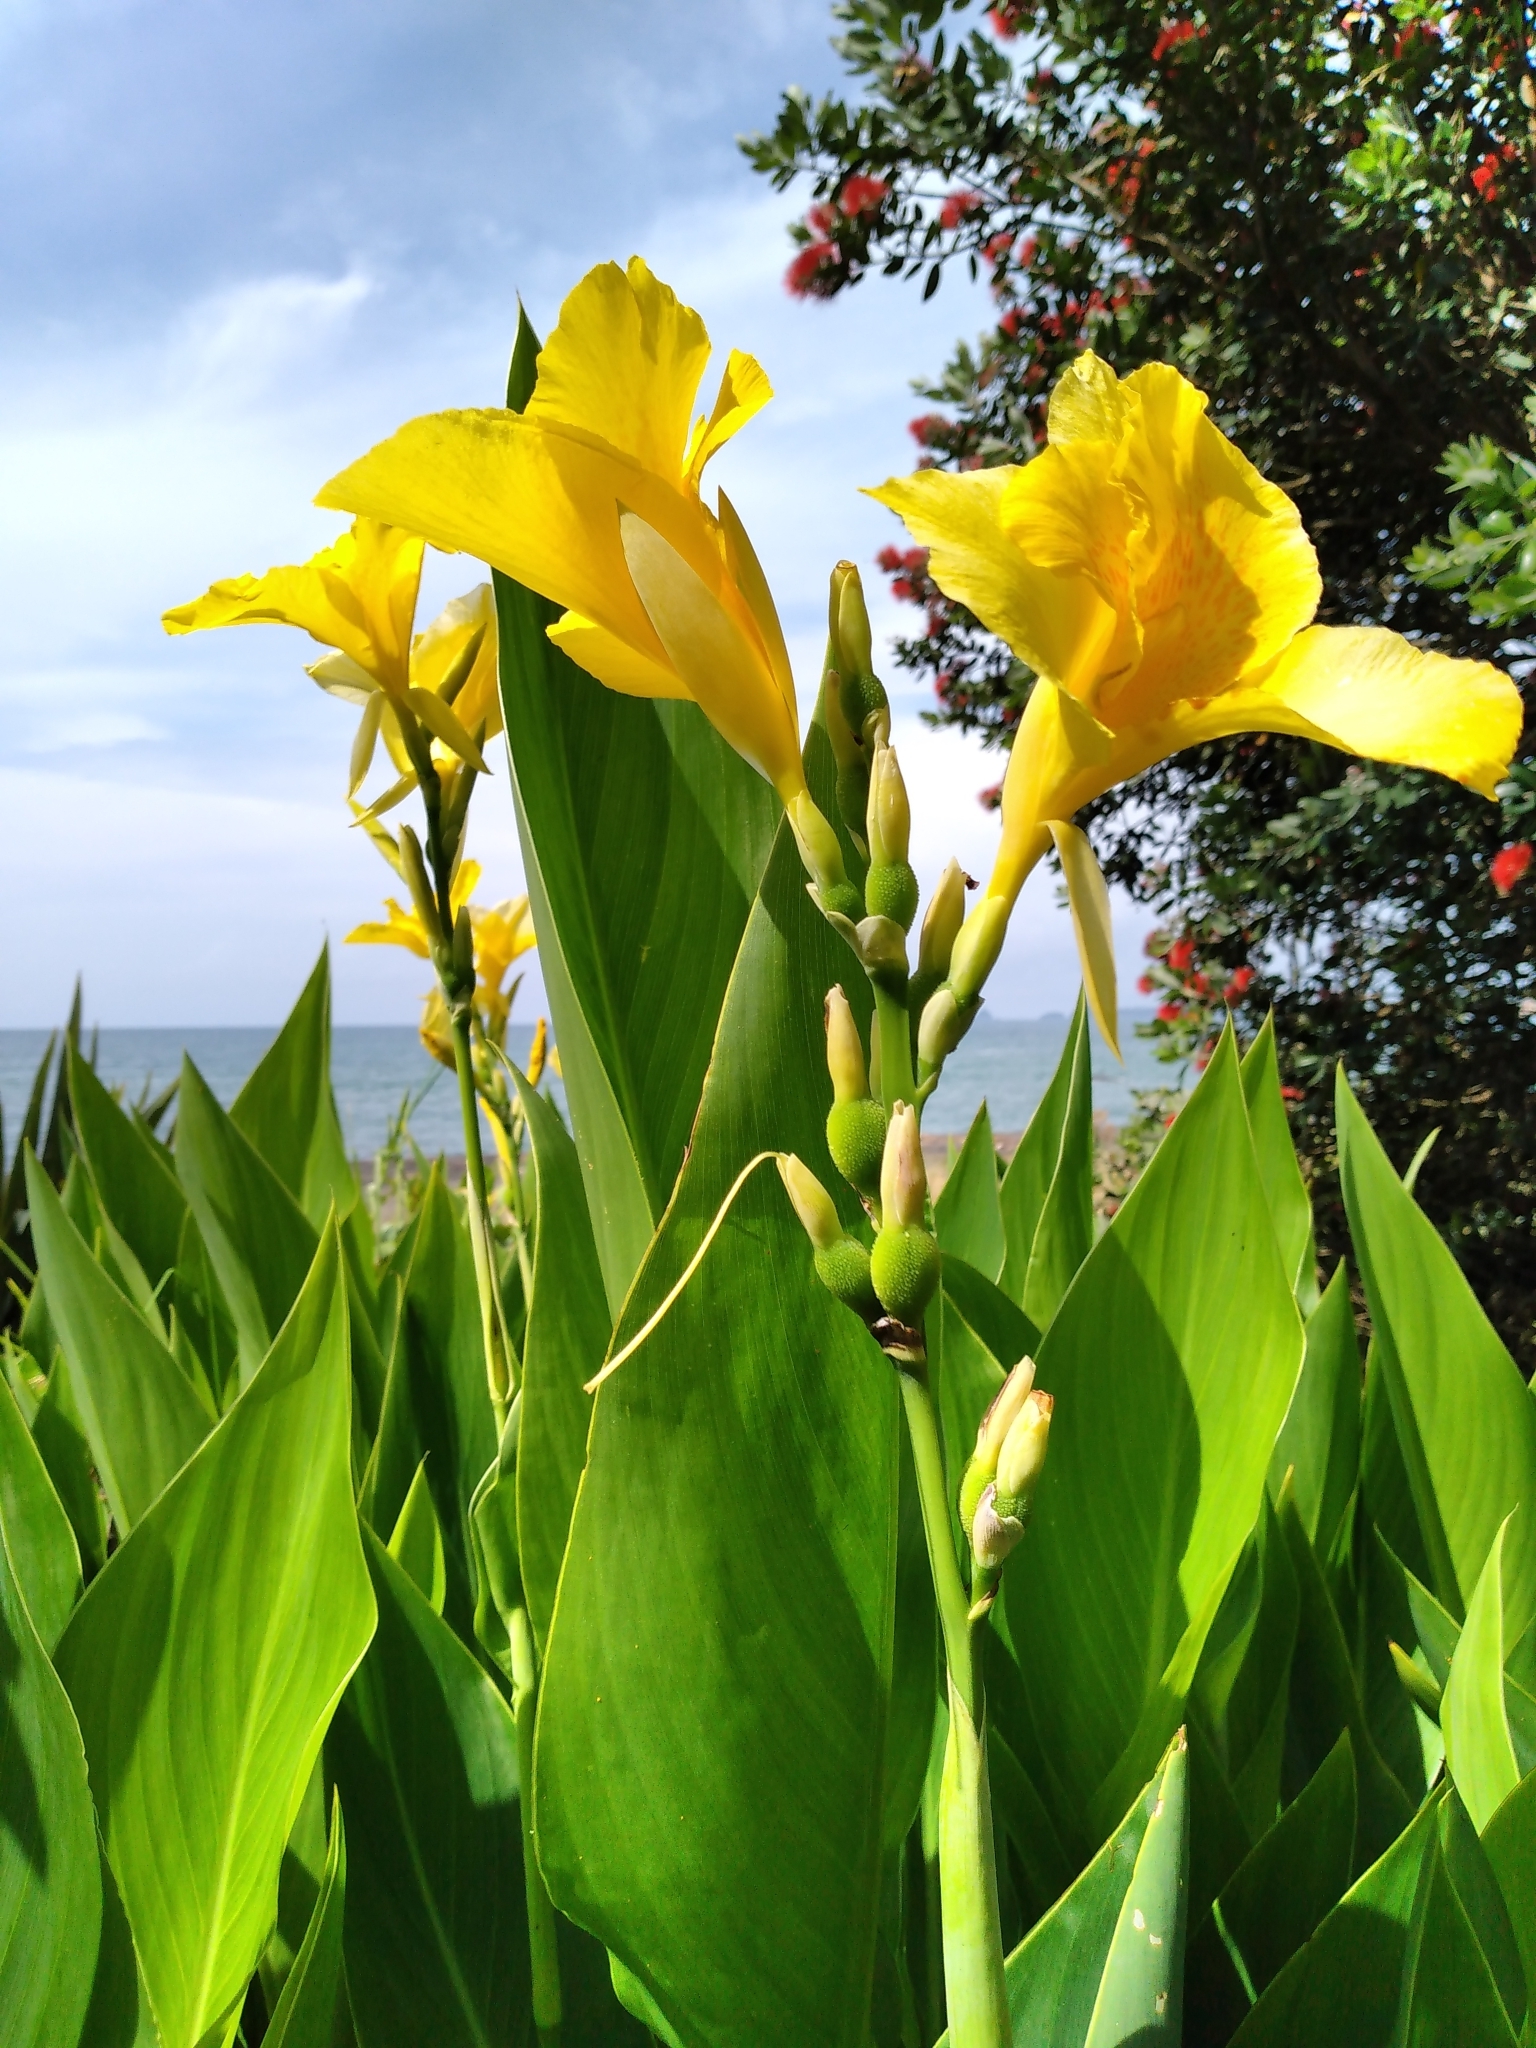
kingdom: Plantae
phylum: Tracheophyta
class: Liliopsida
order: Zingiberales
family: Cannaceae
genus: Canna
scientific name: Canna hybrida
